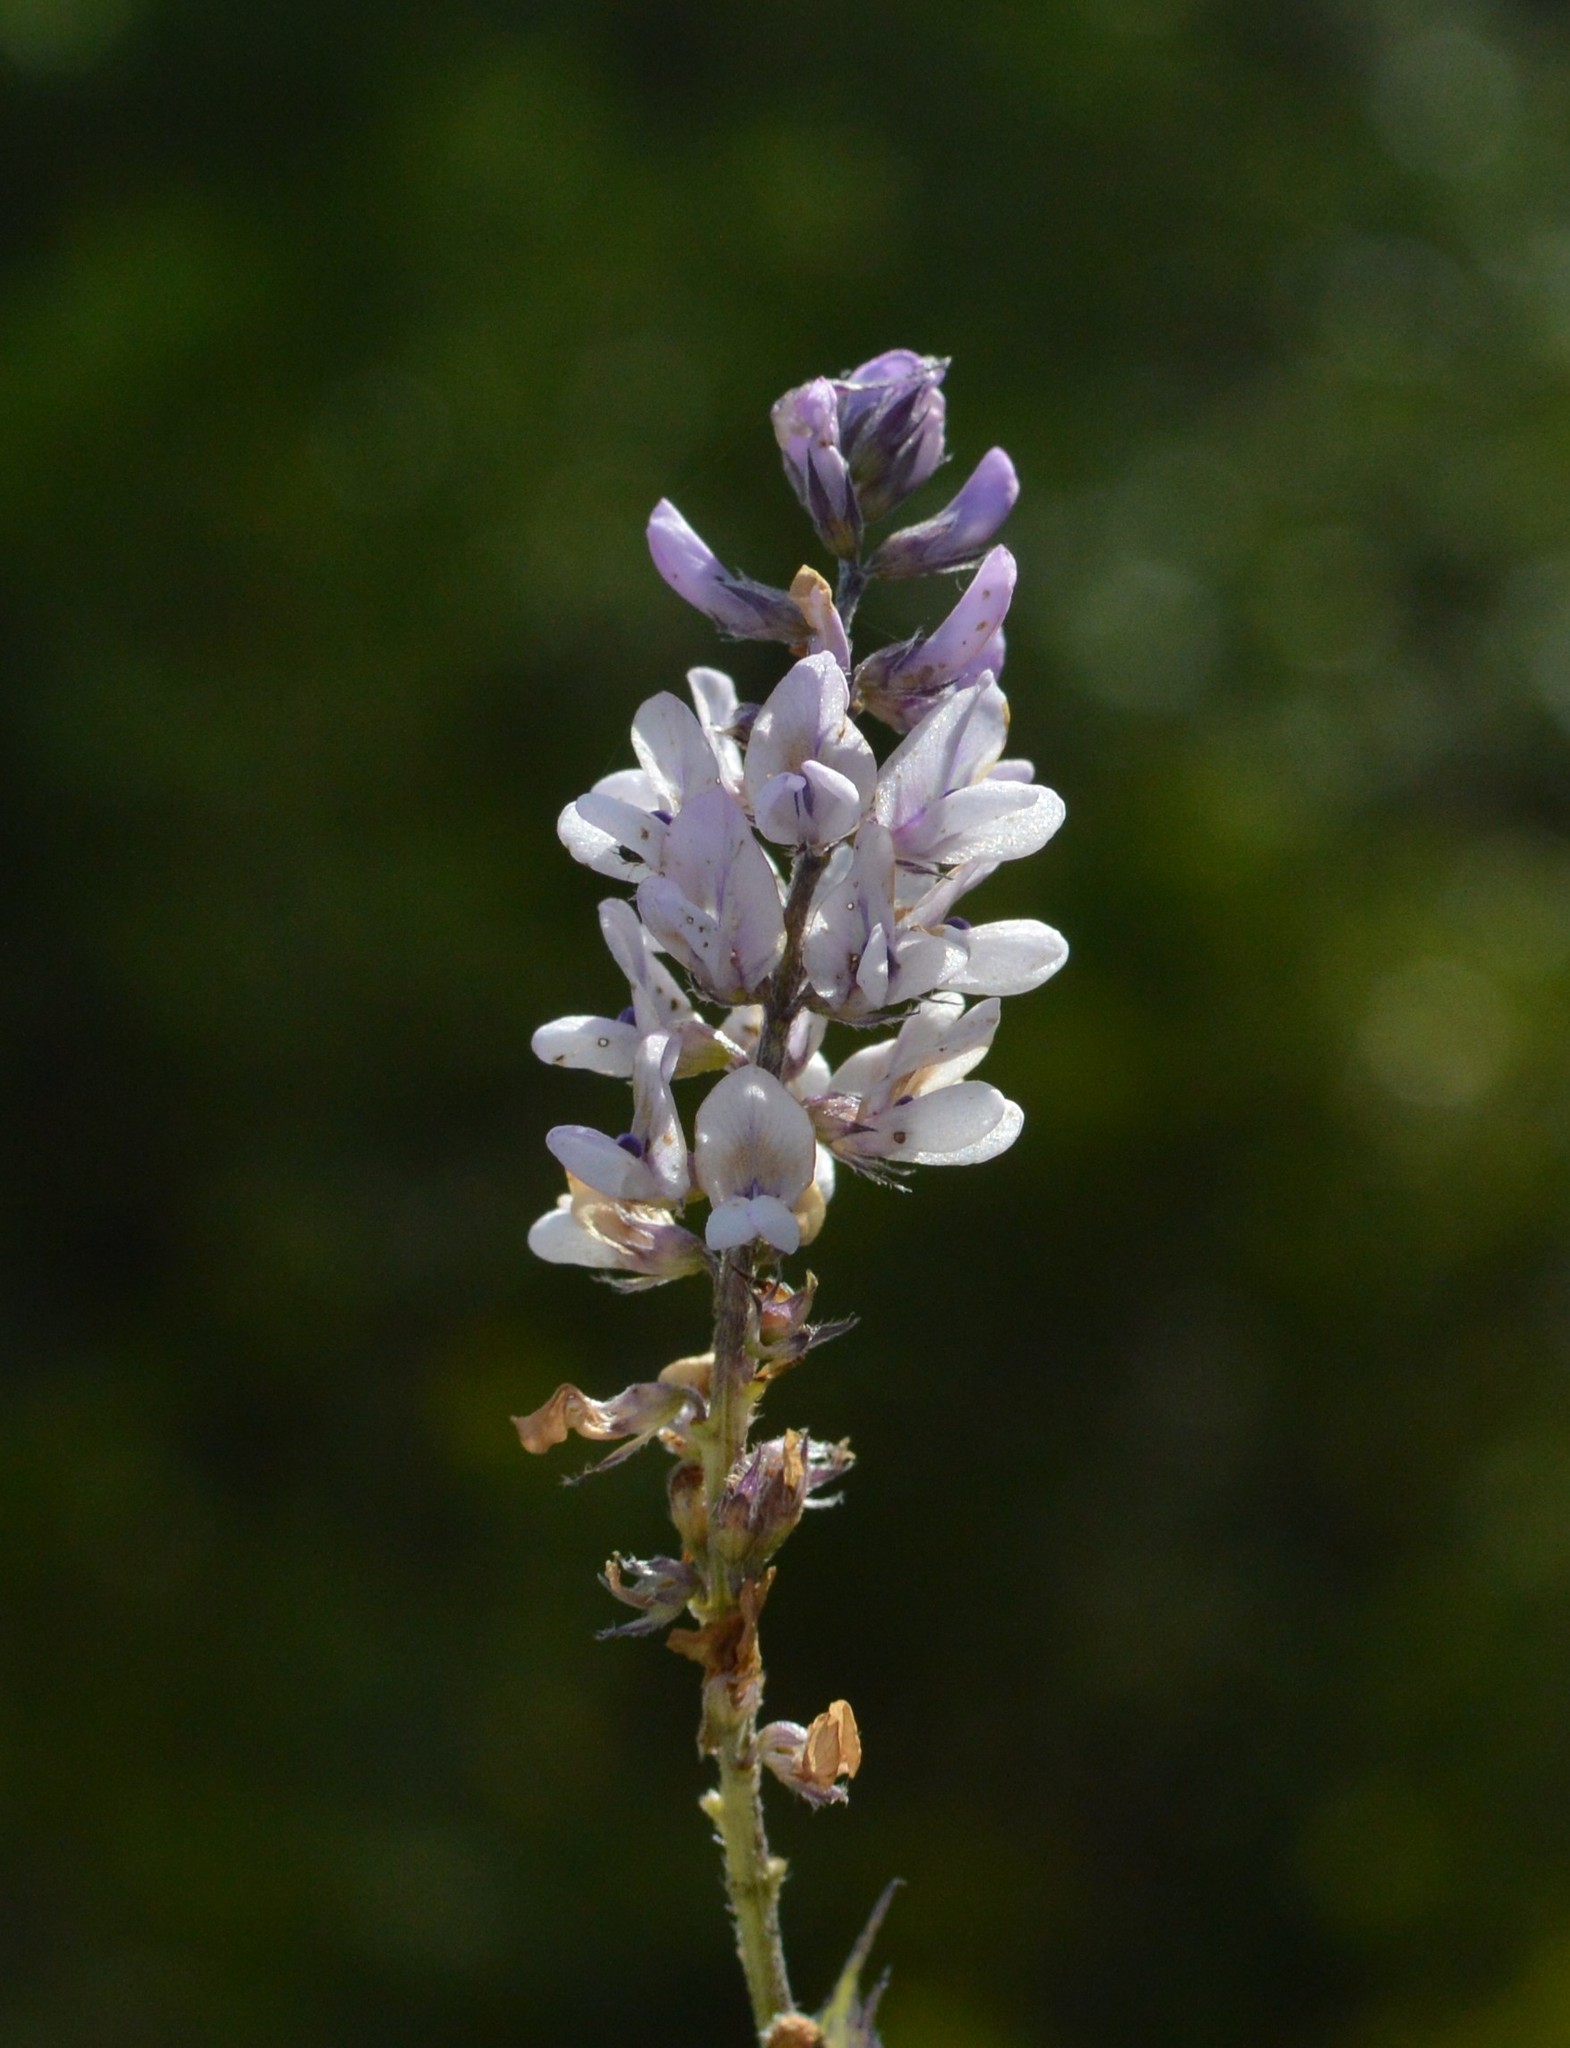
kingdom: Plantae
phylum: Tracheophyta
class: Magnoliopsida
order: Fabales
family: Fabaceae
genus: Orbexilum
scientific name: Orbexilum pedunculatum
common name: Sampson's snakeroot
